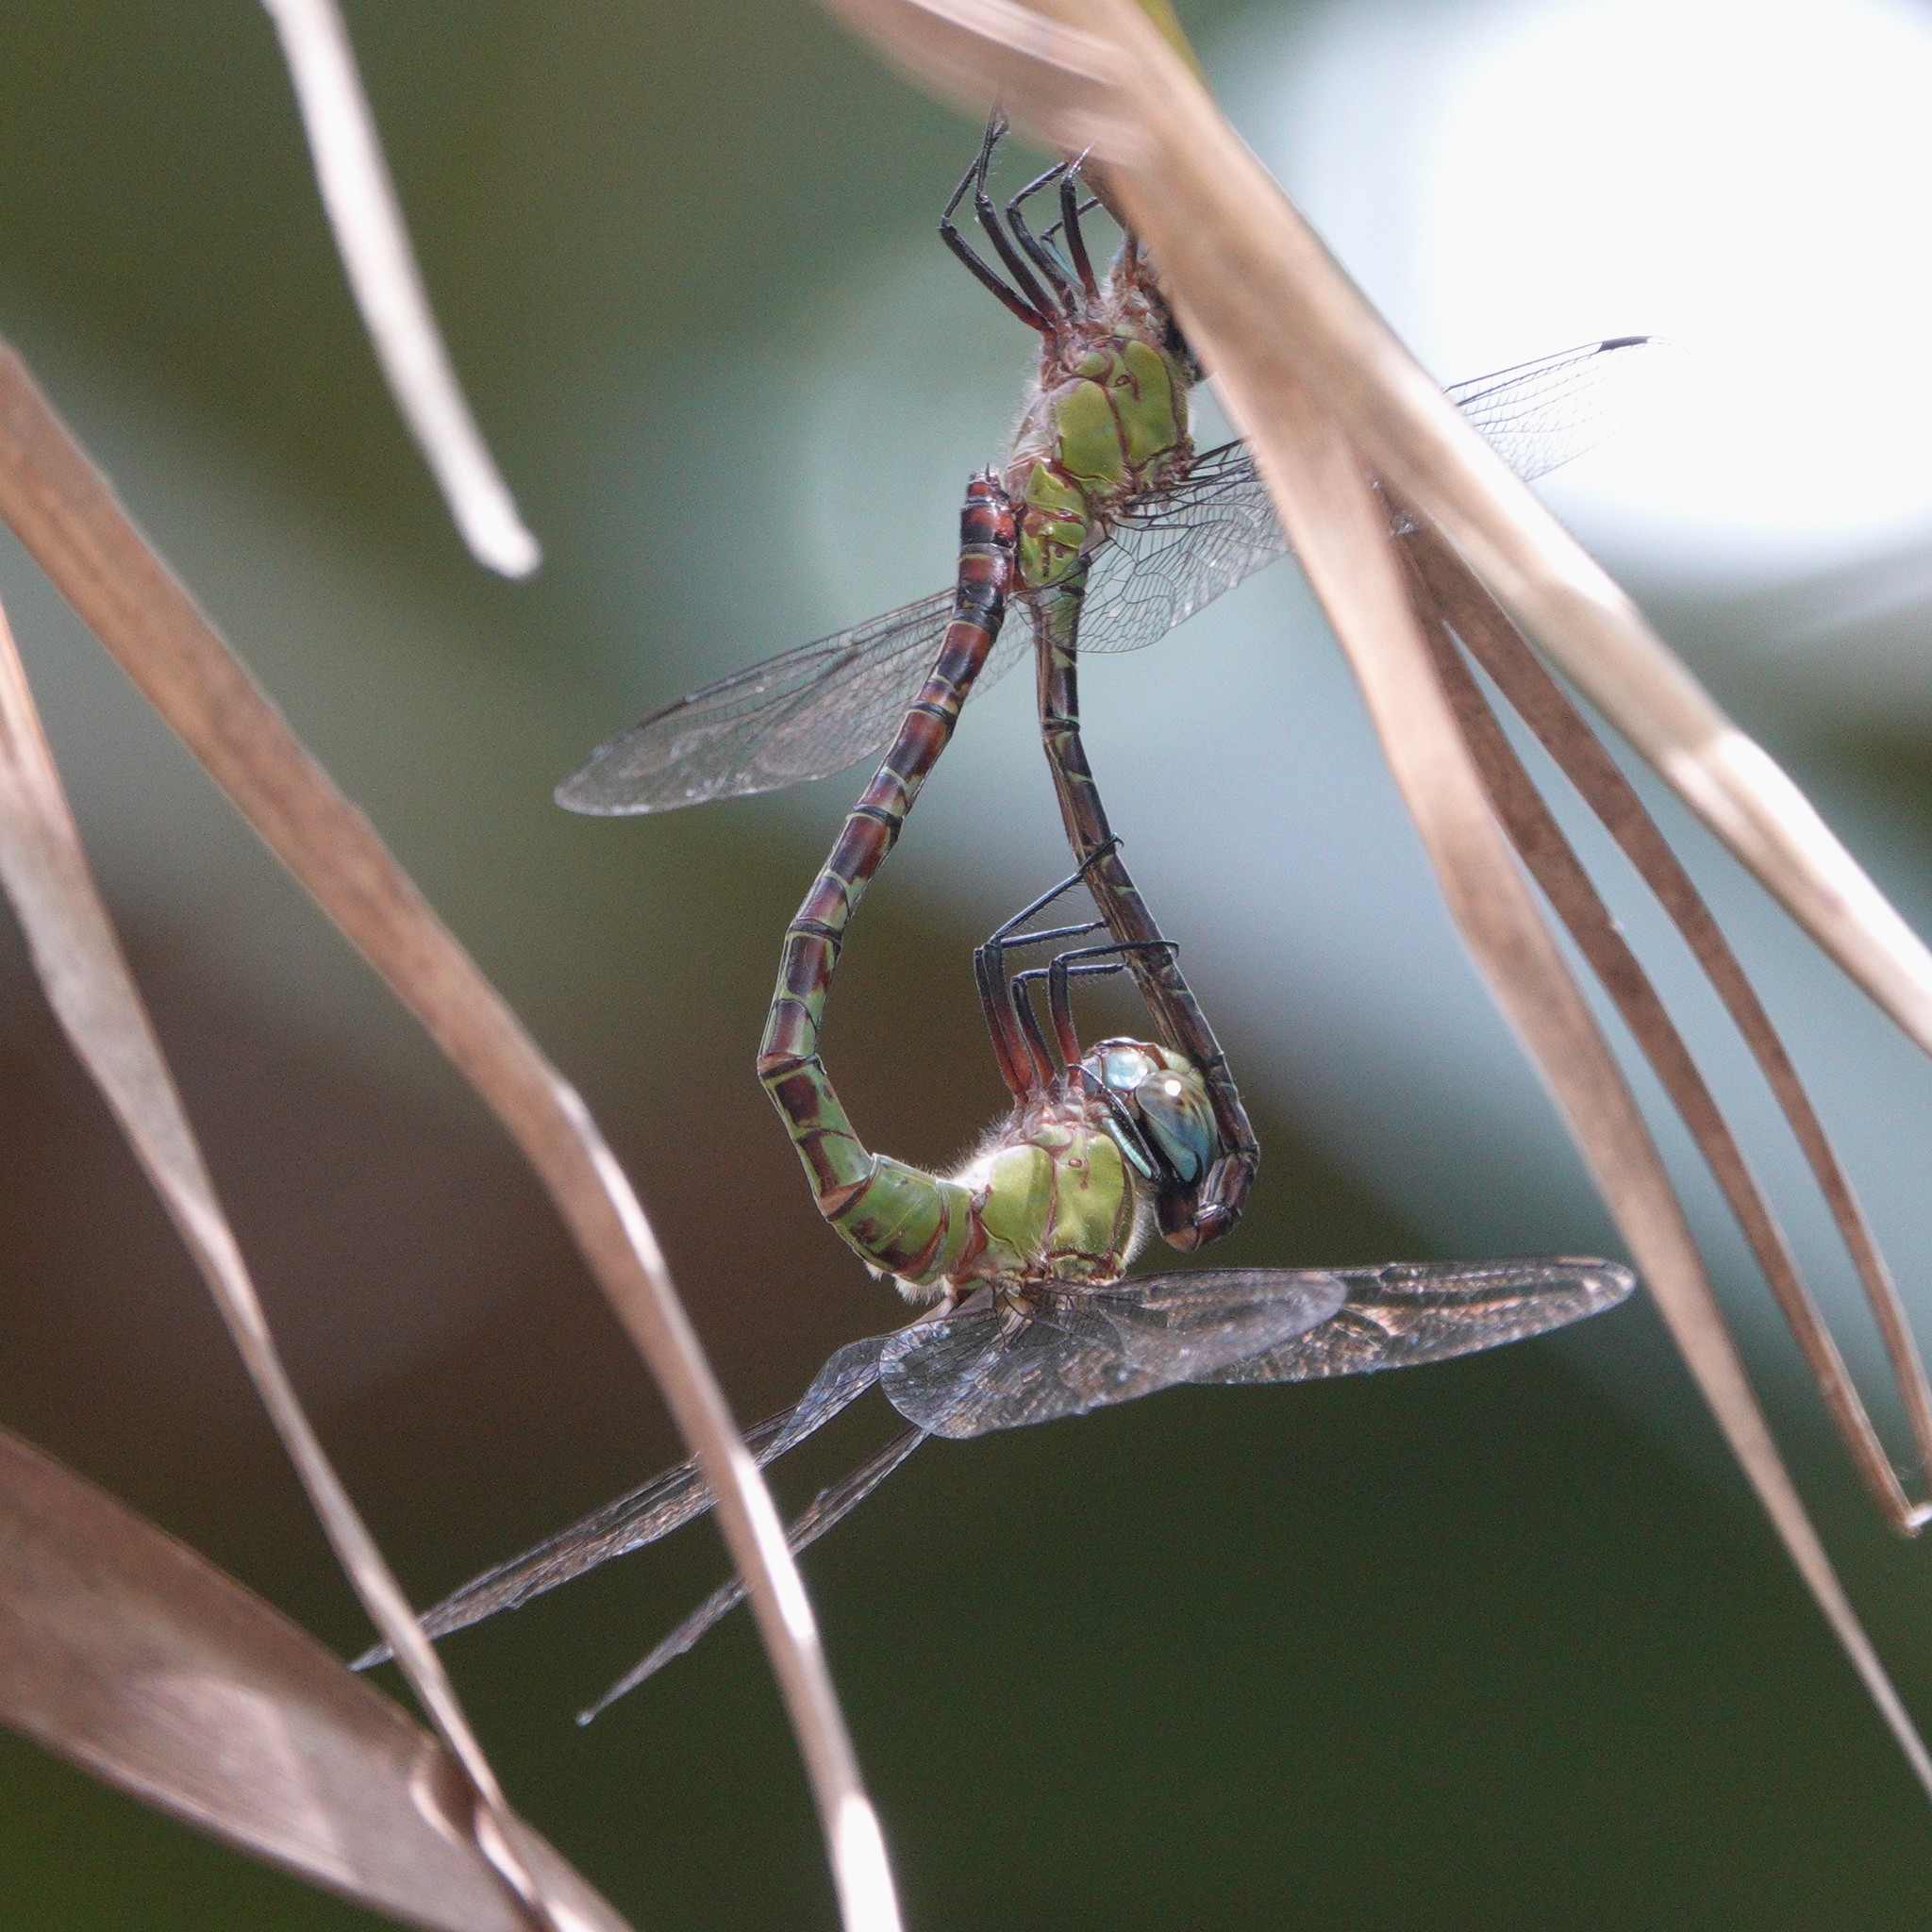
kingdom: Animalia
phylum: Arthropoda
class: Insecta
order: Odonata
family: Aeshnidae
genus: Coryphaeschna
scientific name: Coryphaeschna adnexa
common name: Blue-faced darner
